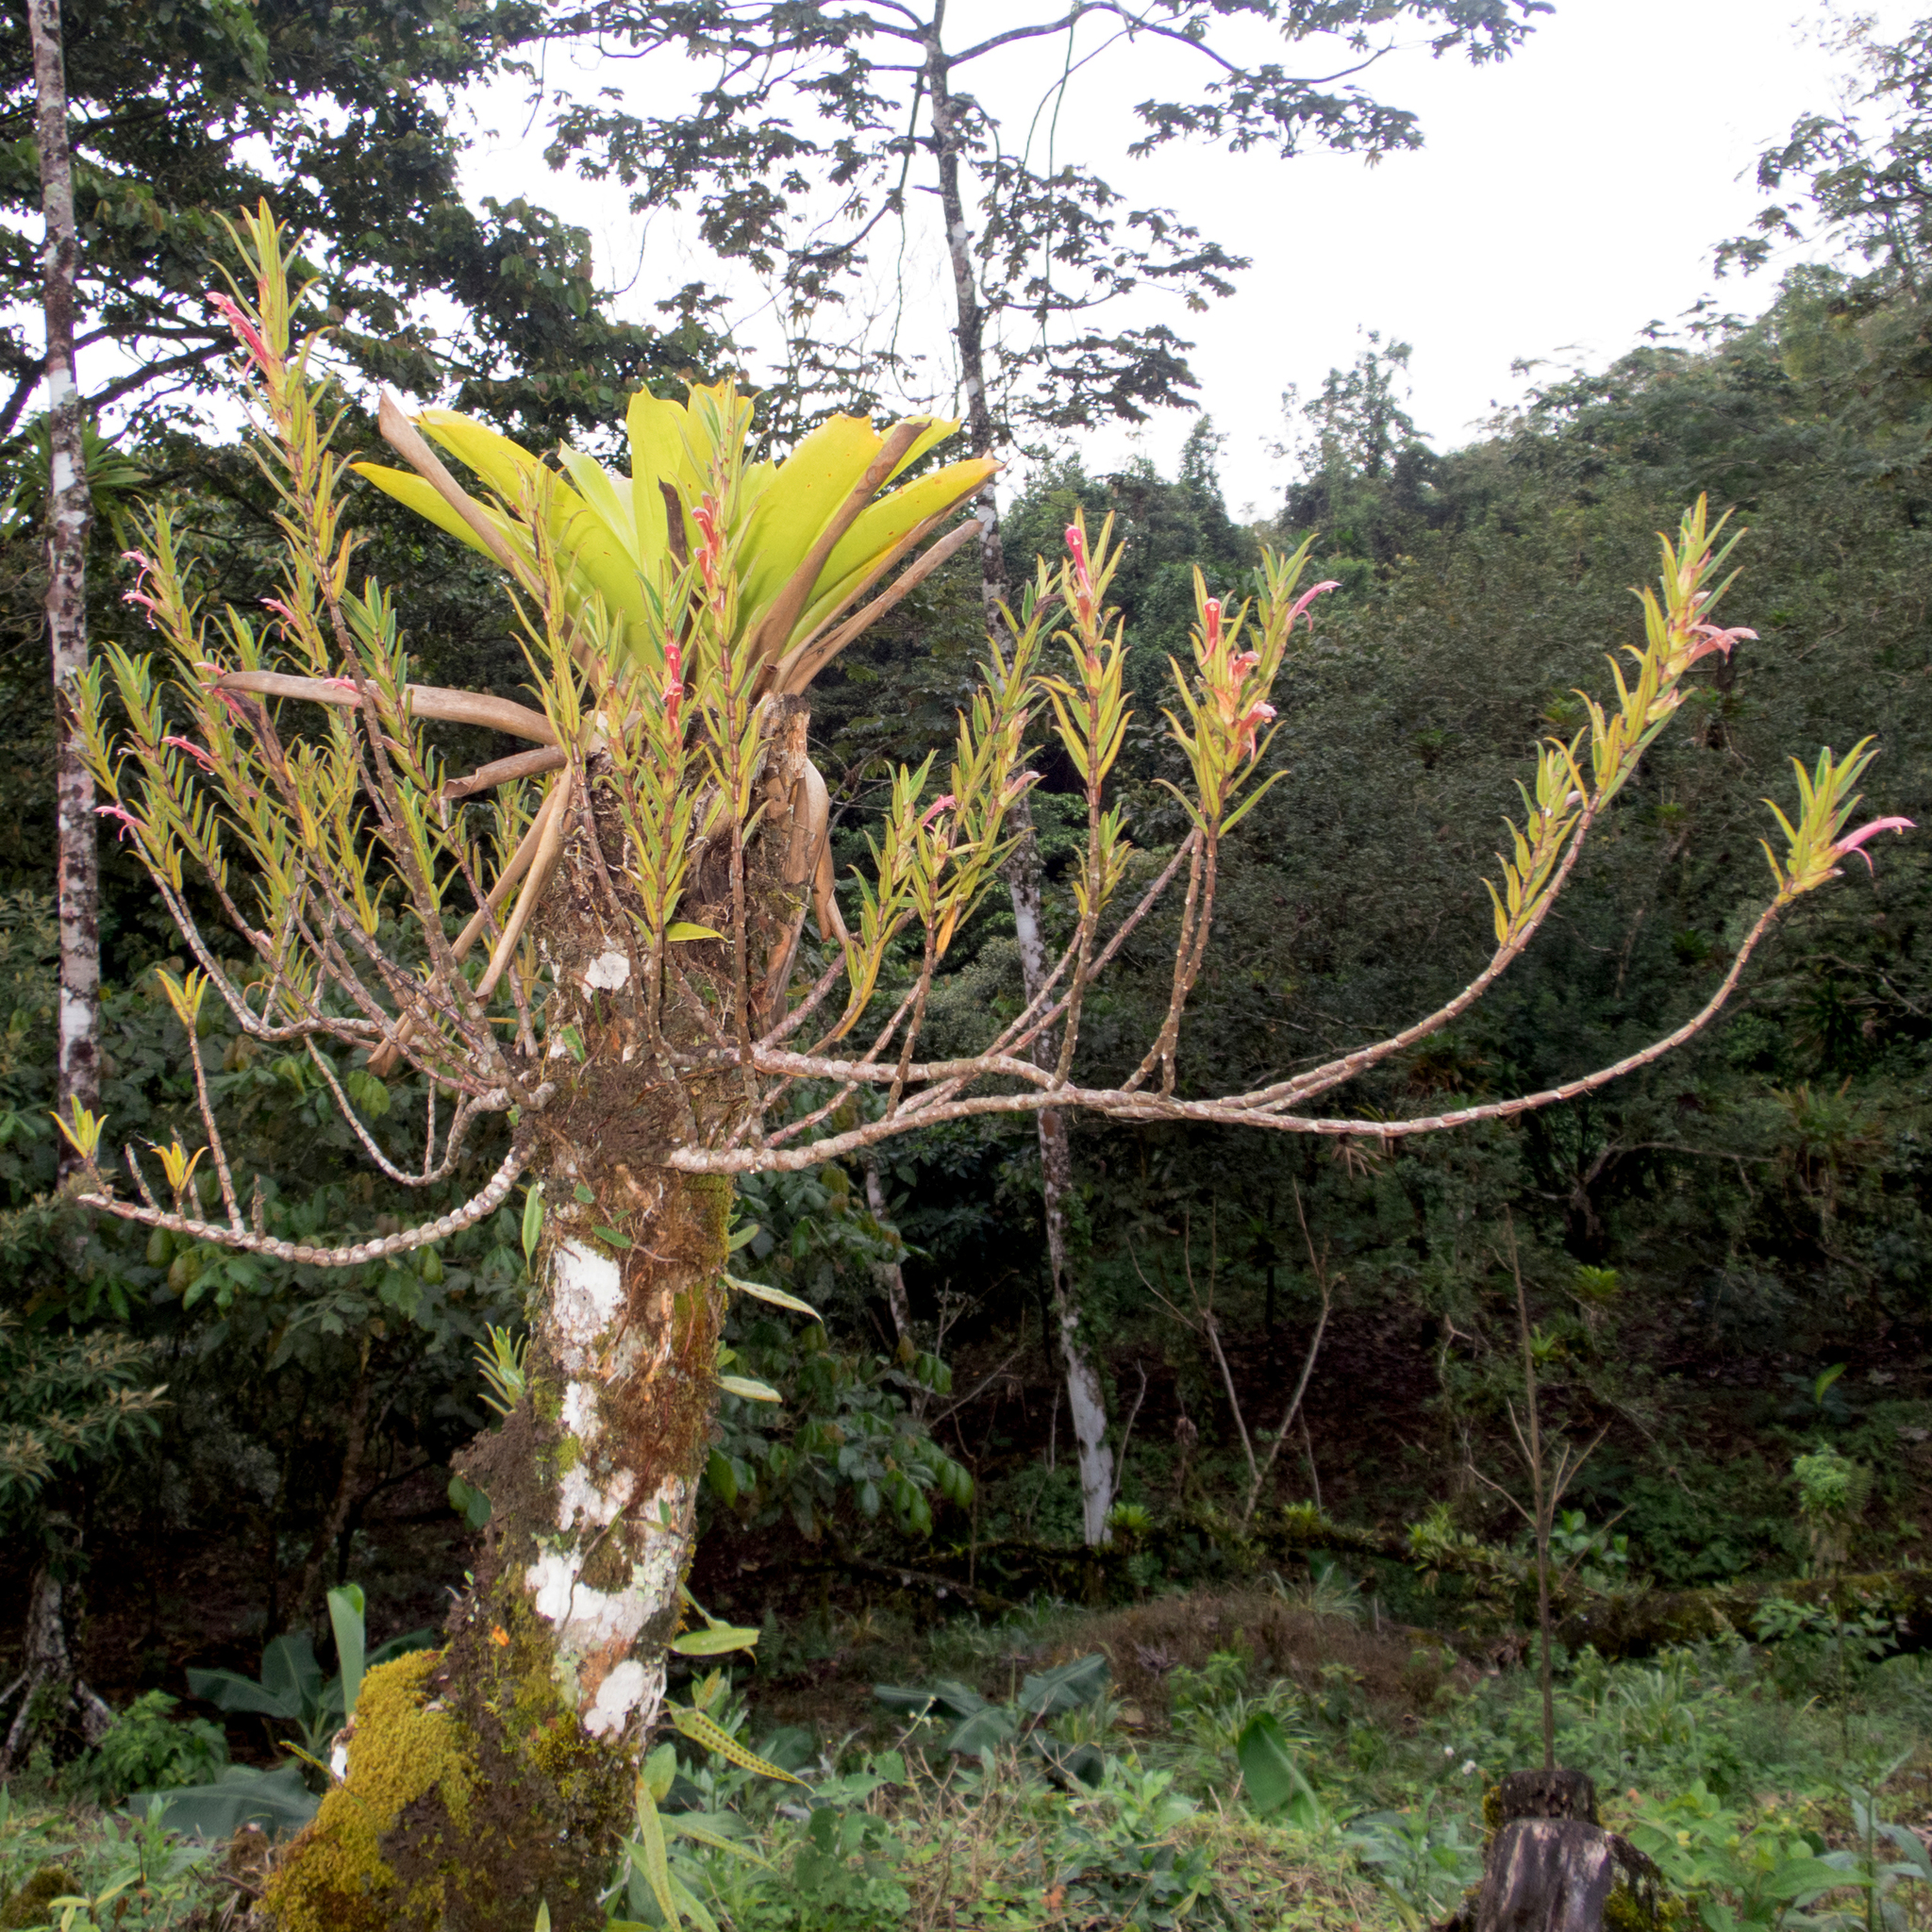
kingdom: Plantae
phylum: Tracheophyta
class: Magnoliopsida
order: Lamiales
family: Gesneriaceae
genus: Columnea
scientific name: Columnea linearis
